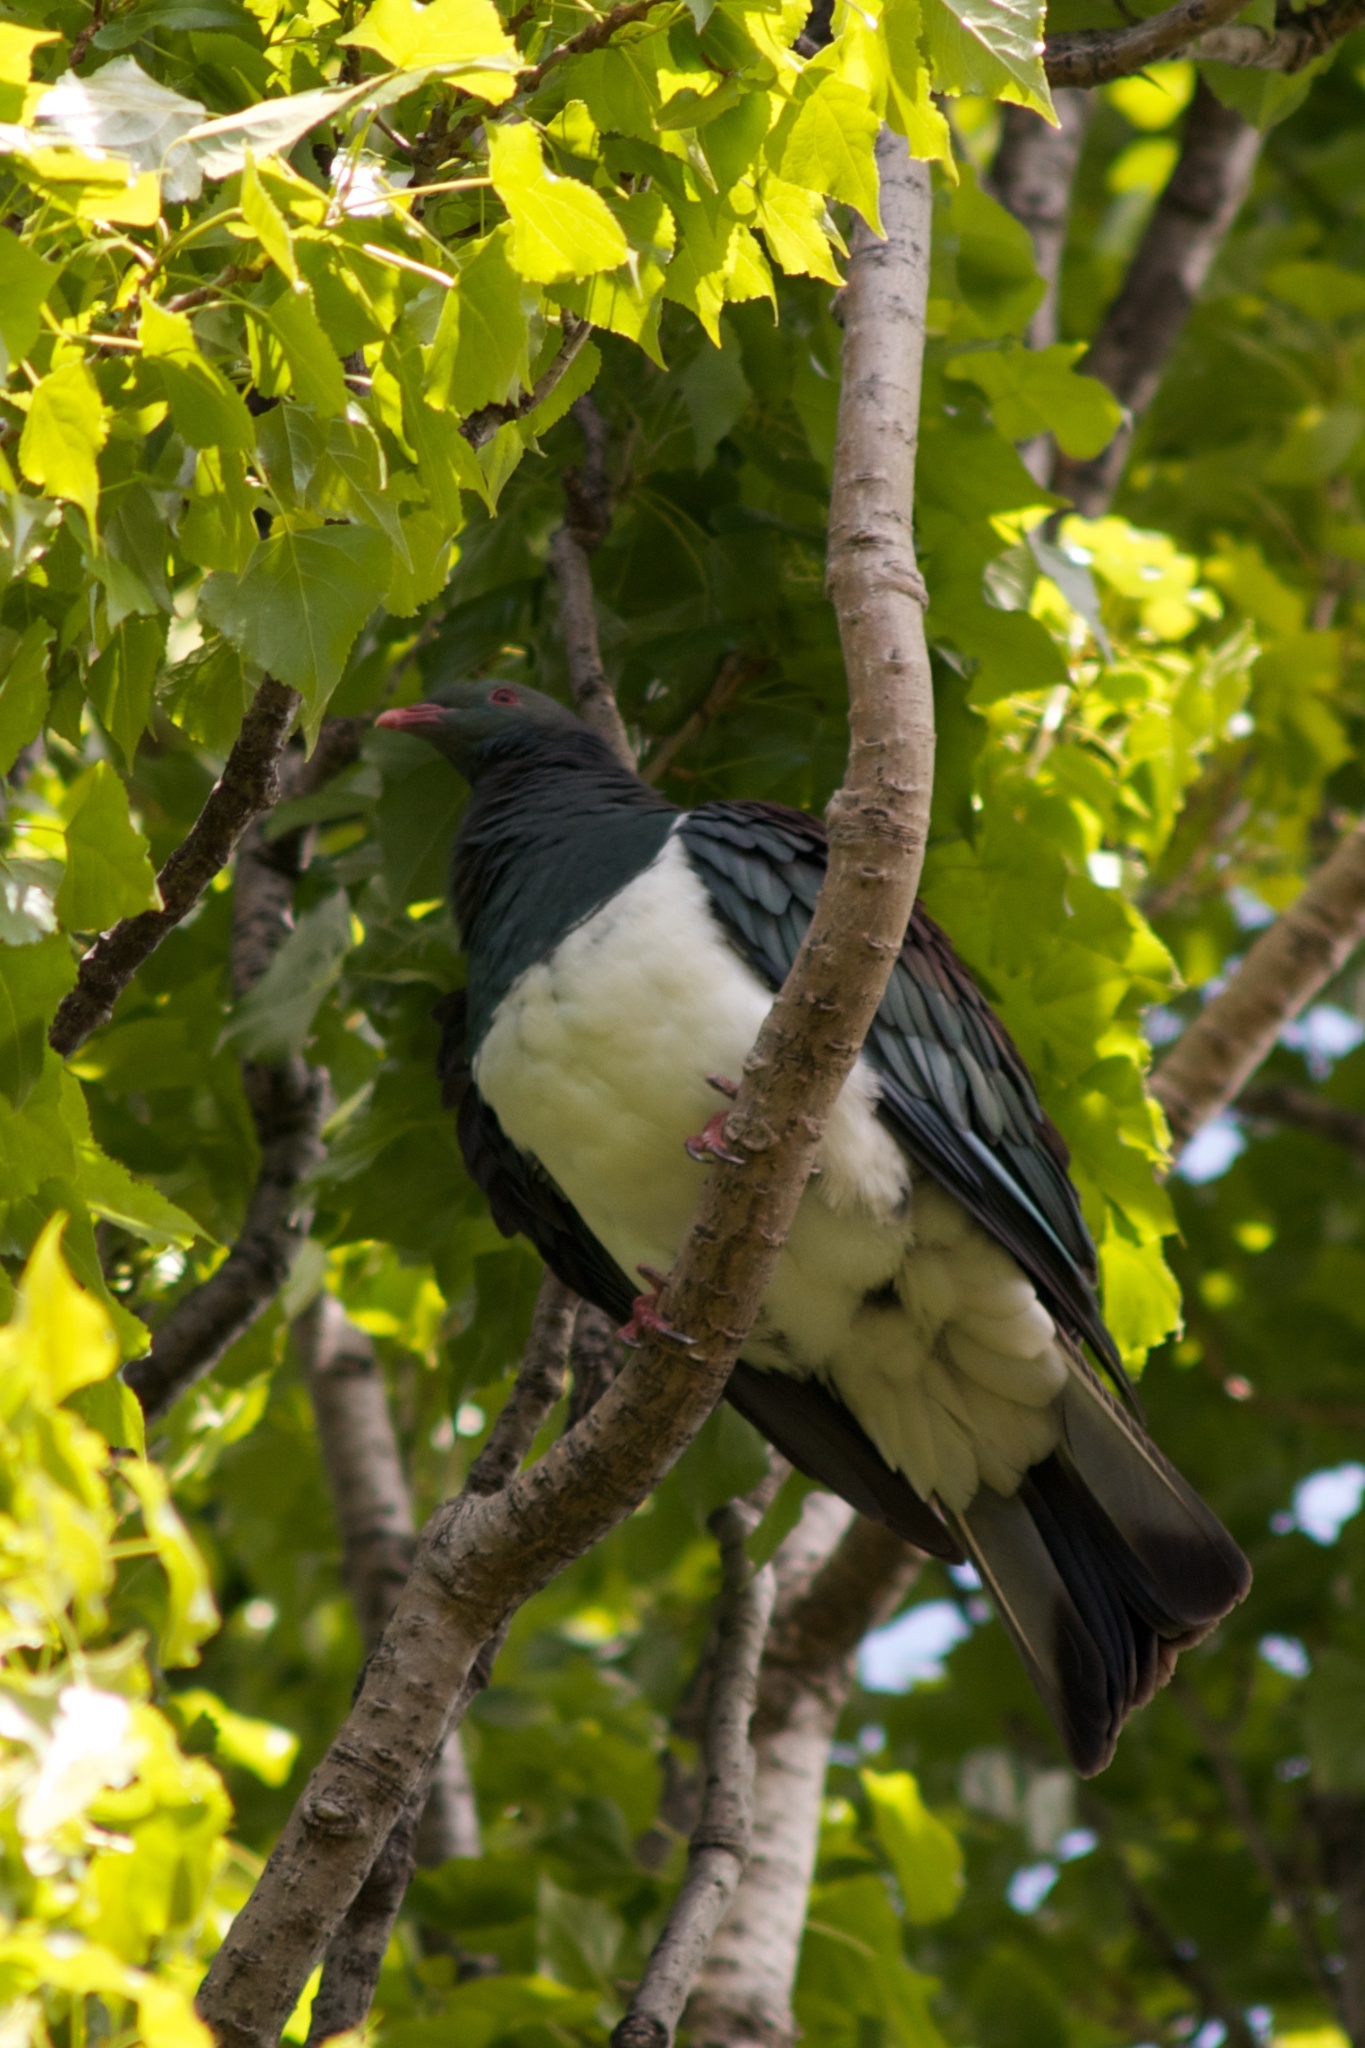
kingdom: Animalia
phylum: Chordata
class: Aves
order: Columbiformes
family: Columbidae
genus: Hemiphaga
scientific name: Hemiphaga novaeseelandiae
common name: New zealand pigeon
